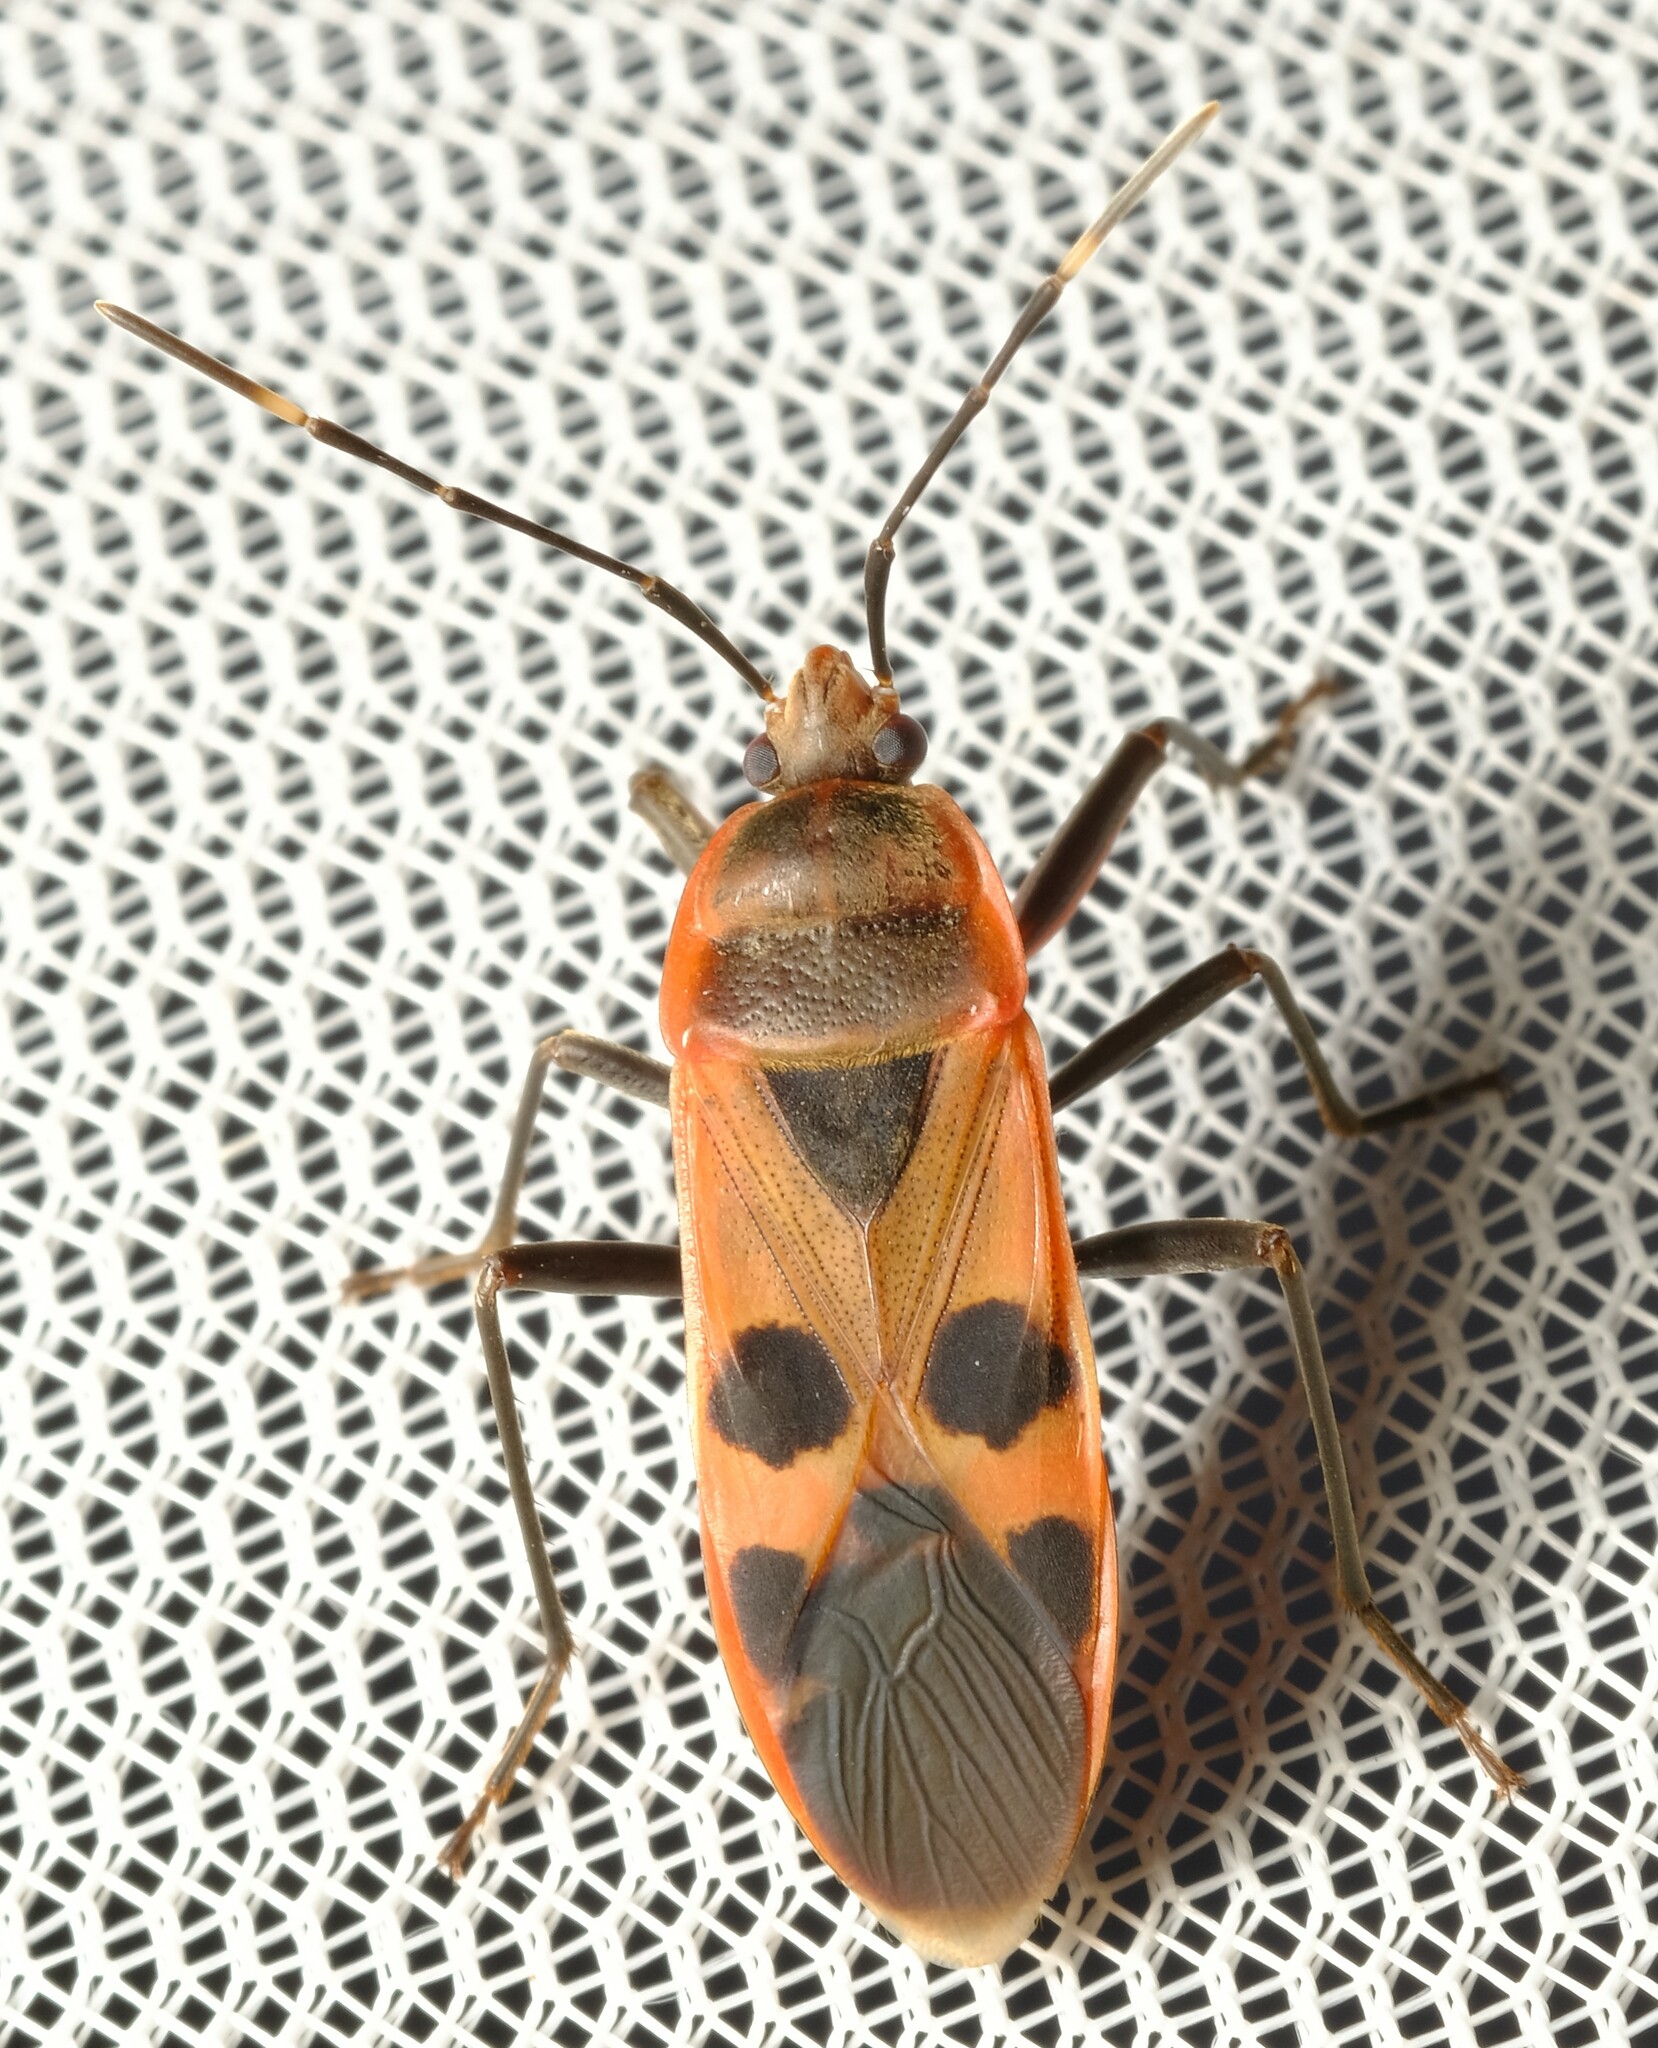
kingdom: Animalia
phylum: Arthropoda
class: Insecta
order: Hemiptera
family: Largidae
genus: Physopelta
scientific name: Physopelta gutta
